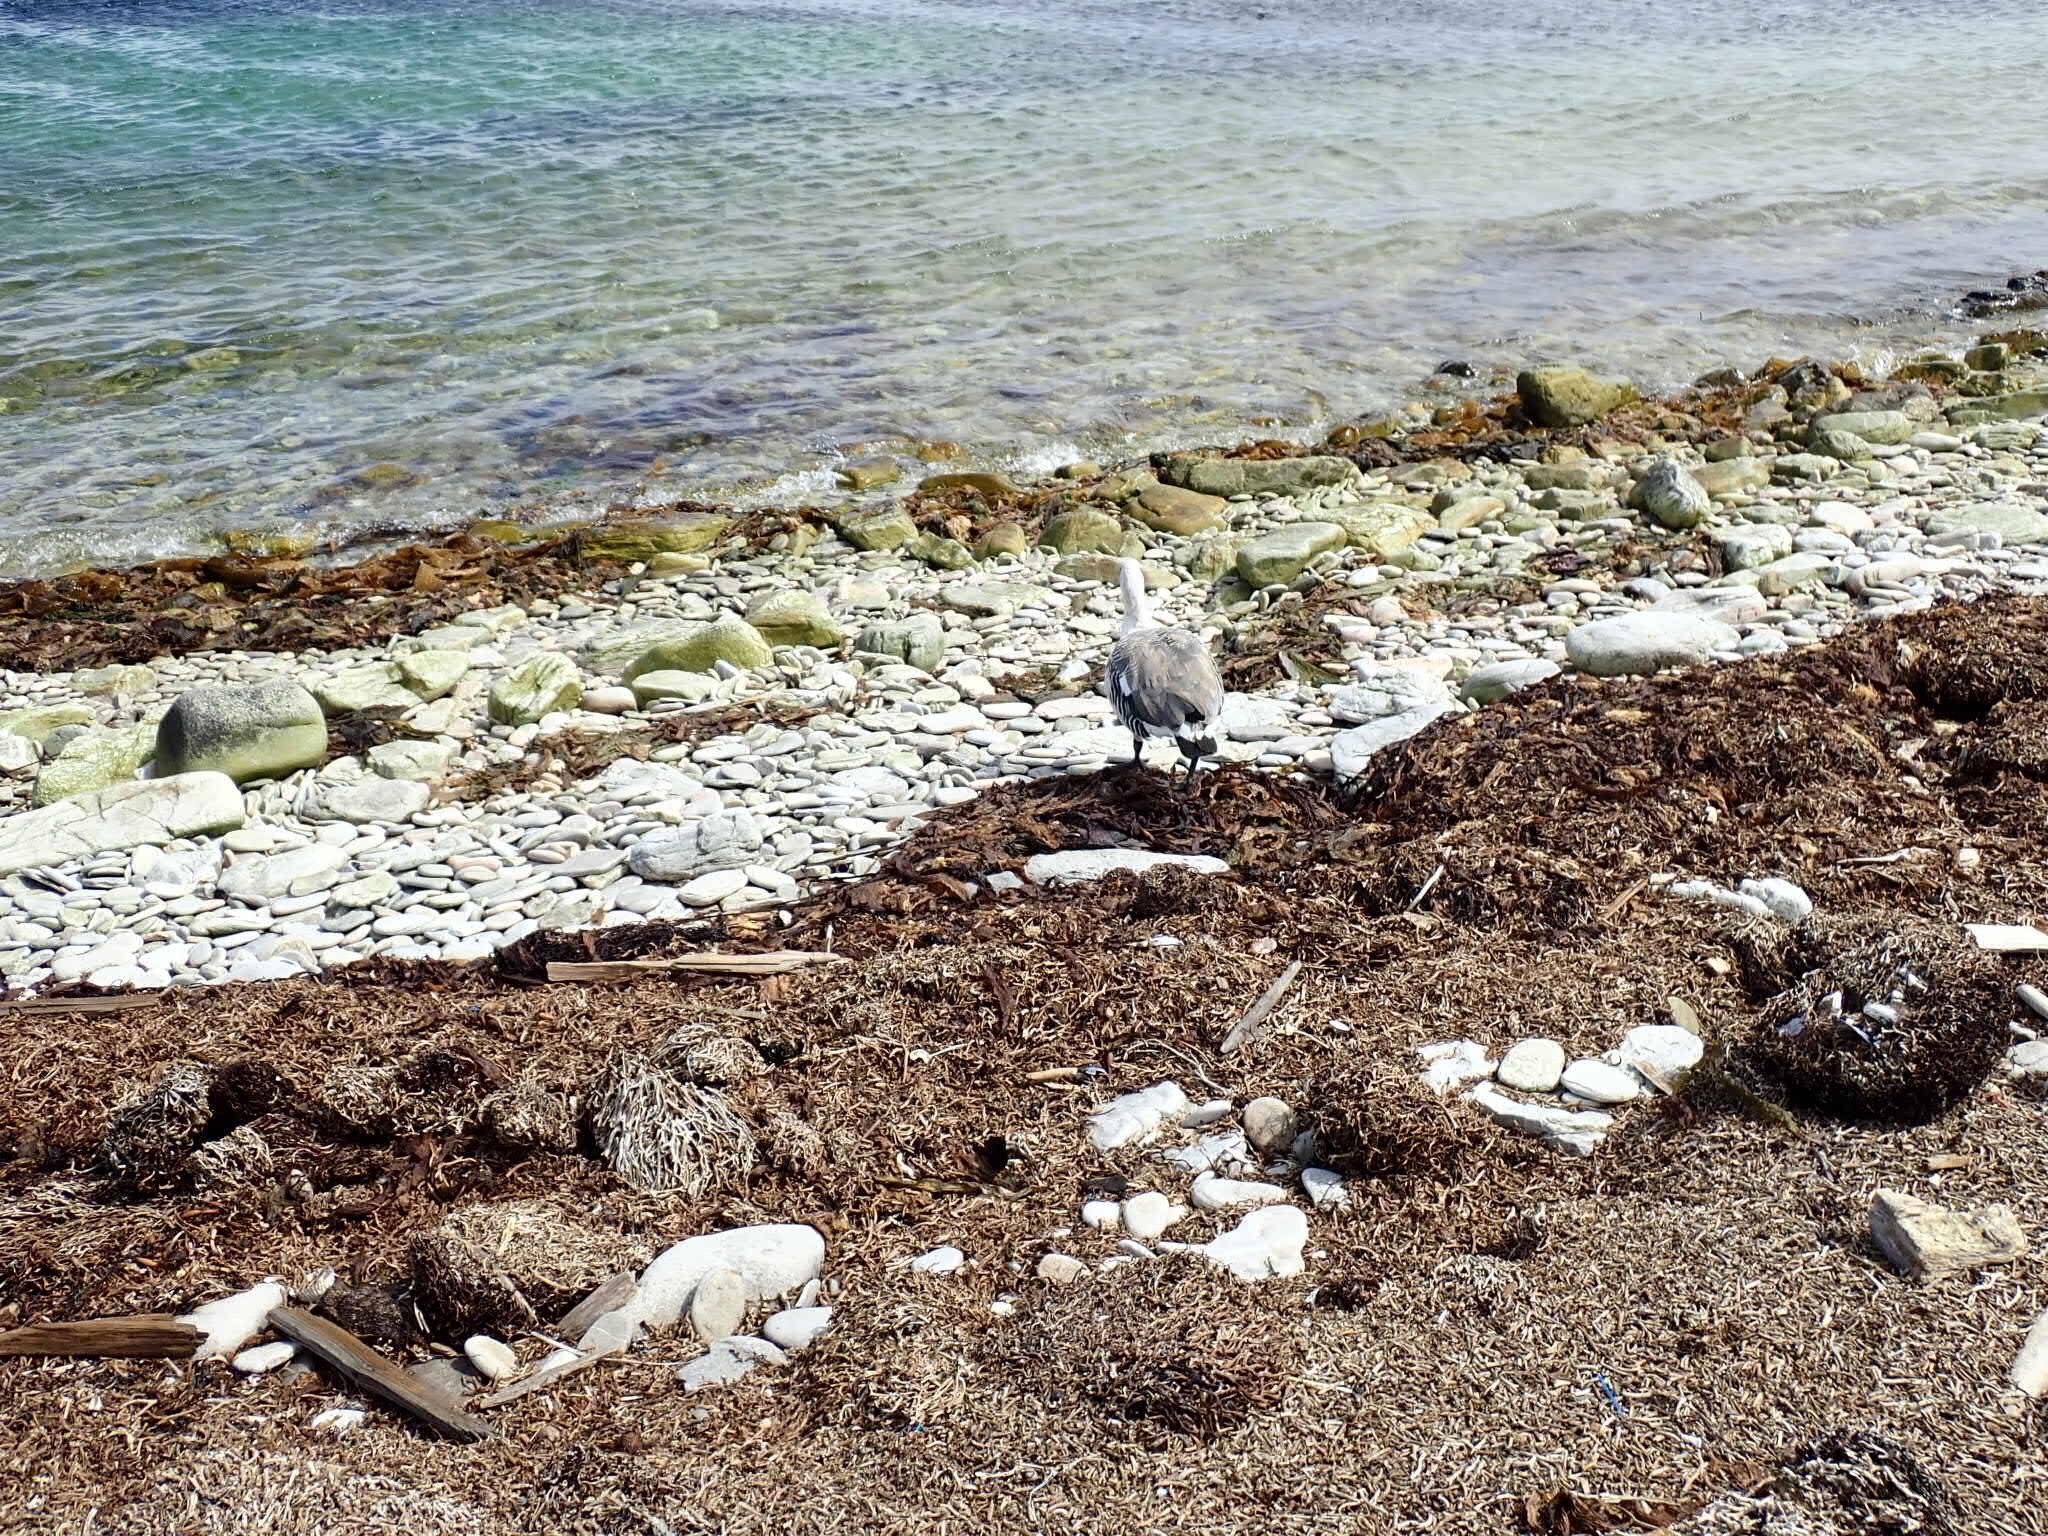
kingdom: Animalia
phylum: Chordata
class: Aves
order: Anseriformes
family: Anatidae
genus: Chloephaga
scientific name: Chloephaga picta
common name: Upland goose
